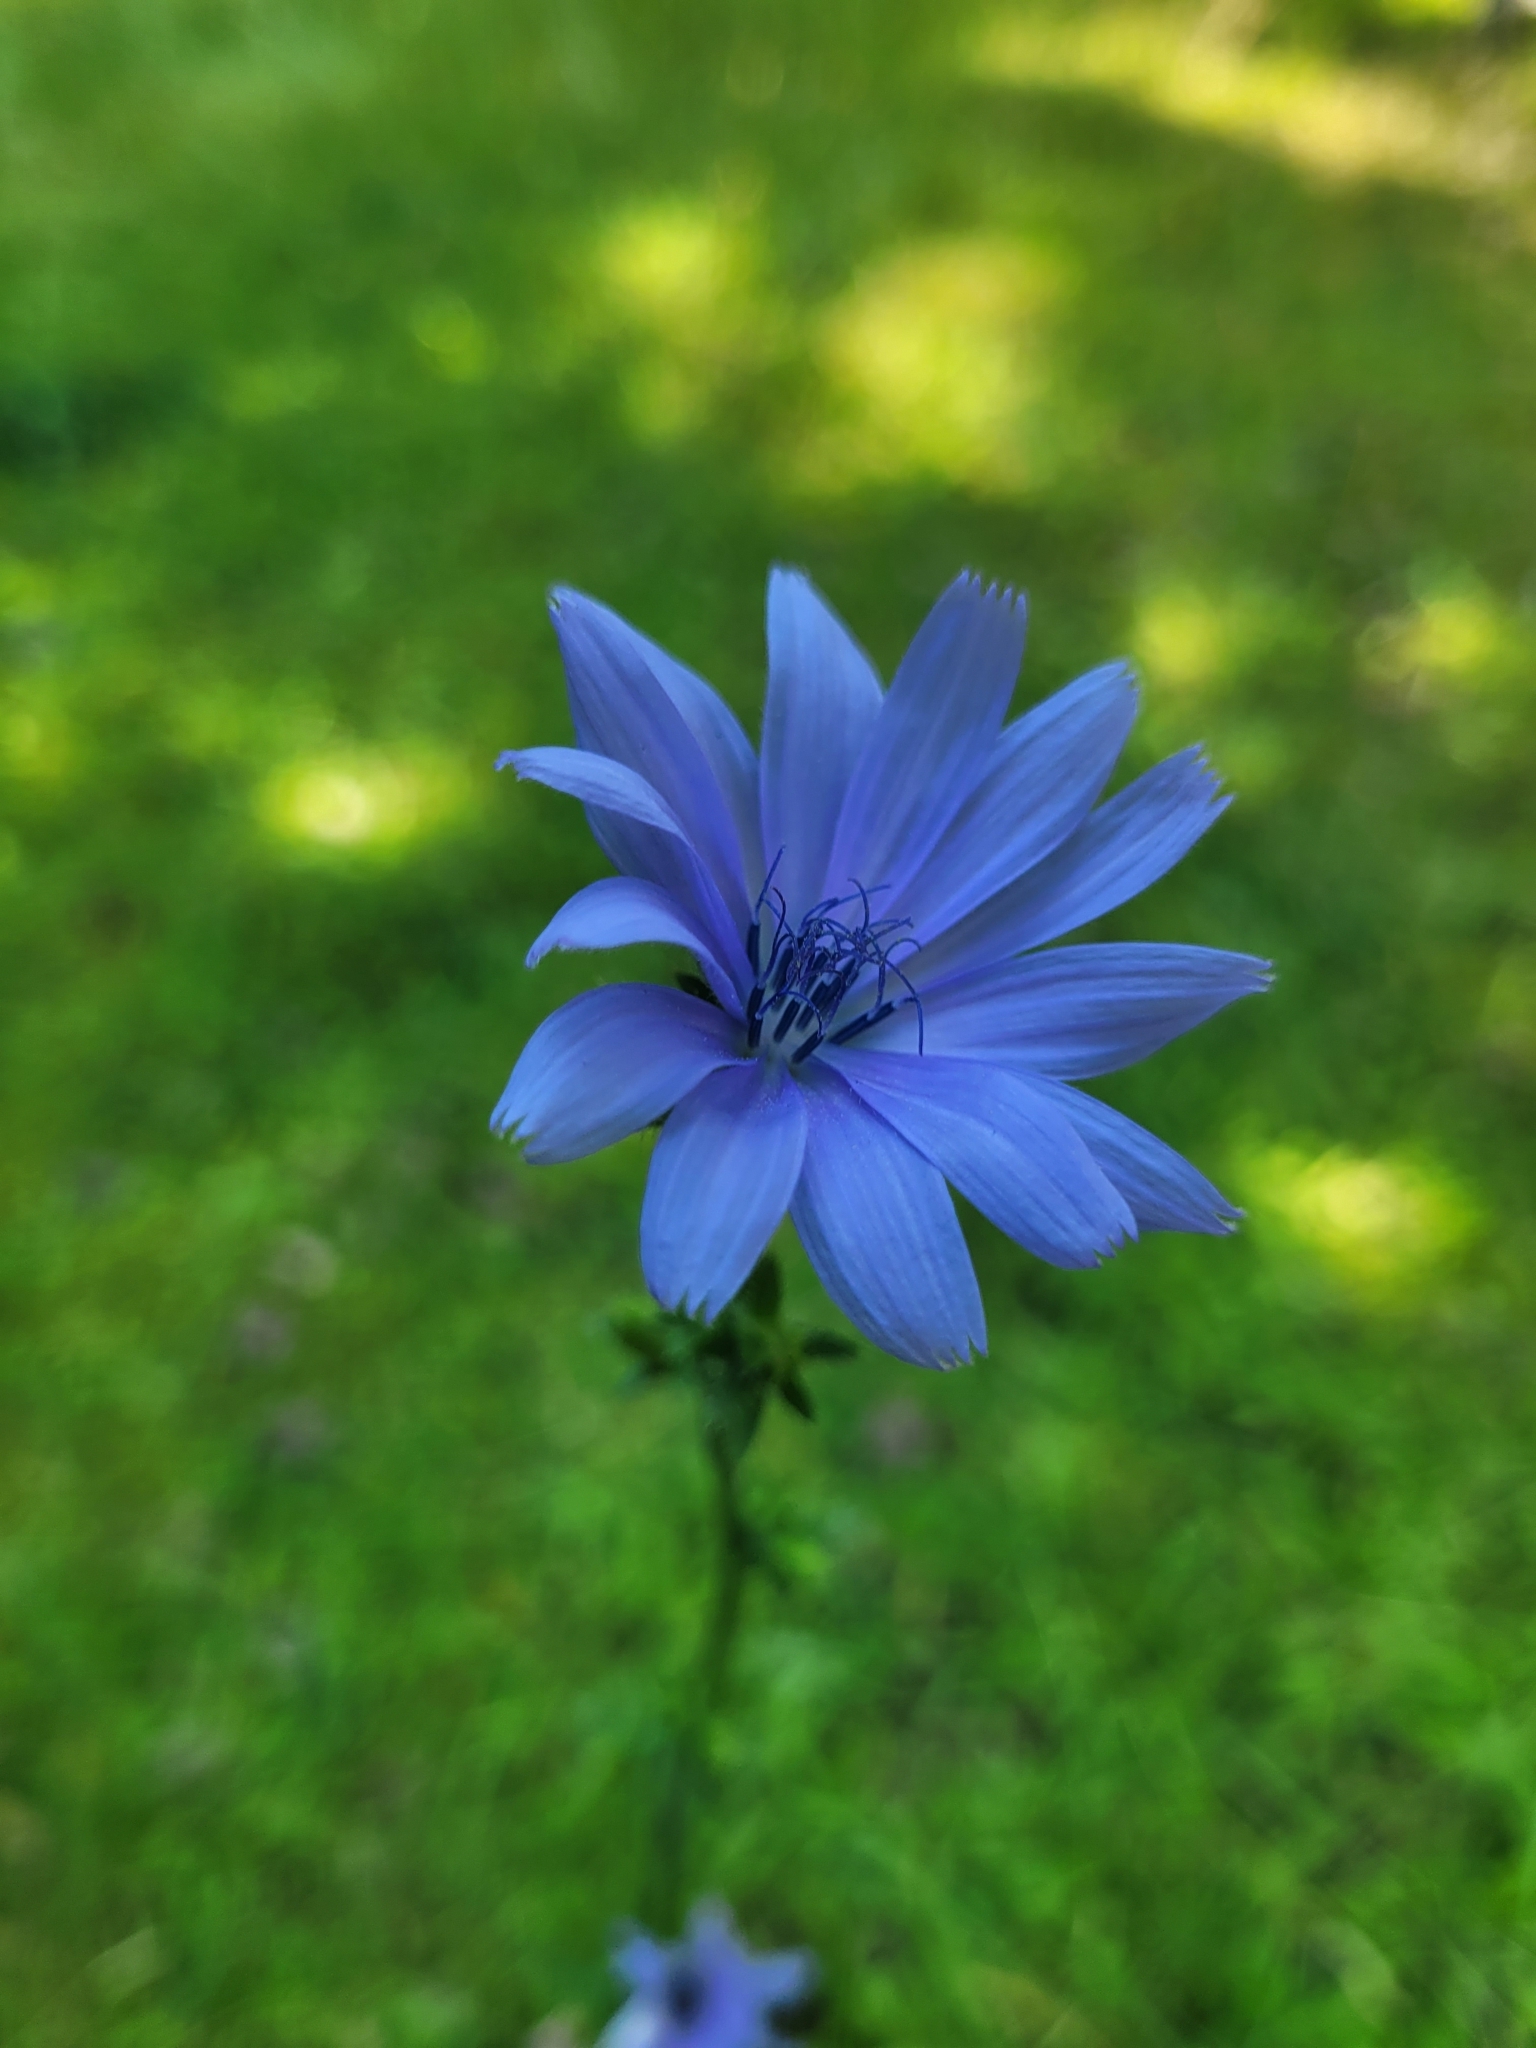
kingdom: Plantae
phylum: Tracheophyta
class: Magnoliopsida
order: Asterales
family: Asteraceae
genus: Cichorium
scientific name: Cichorium intybus
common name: Chicory
